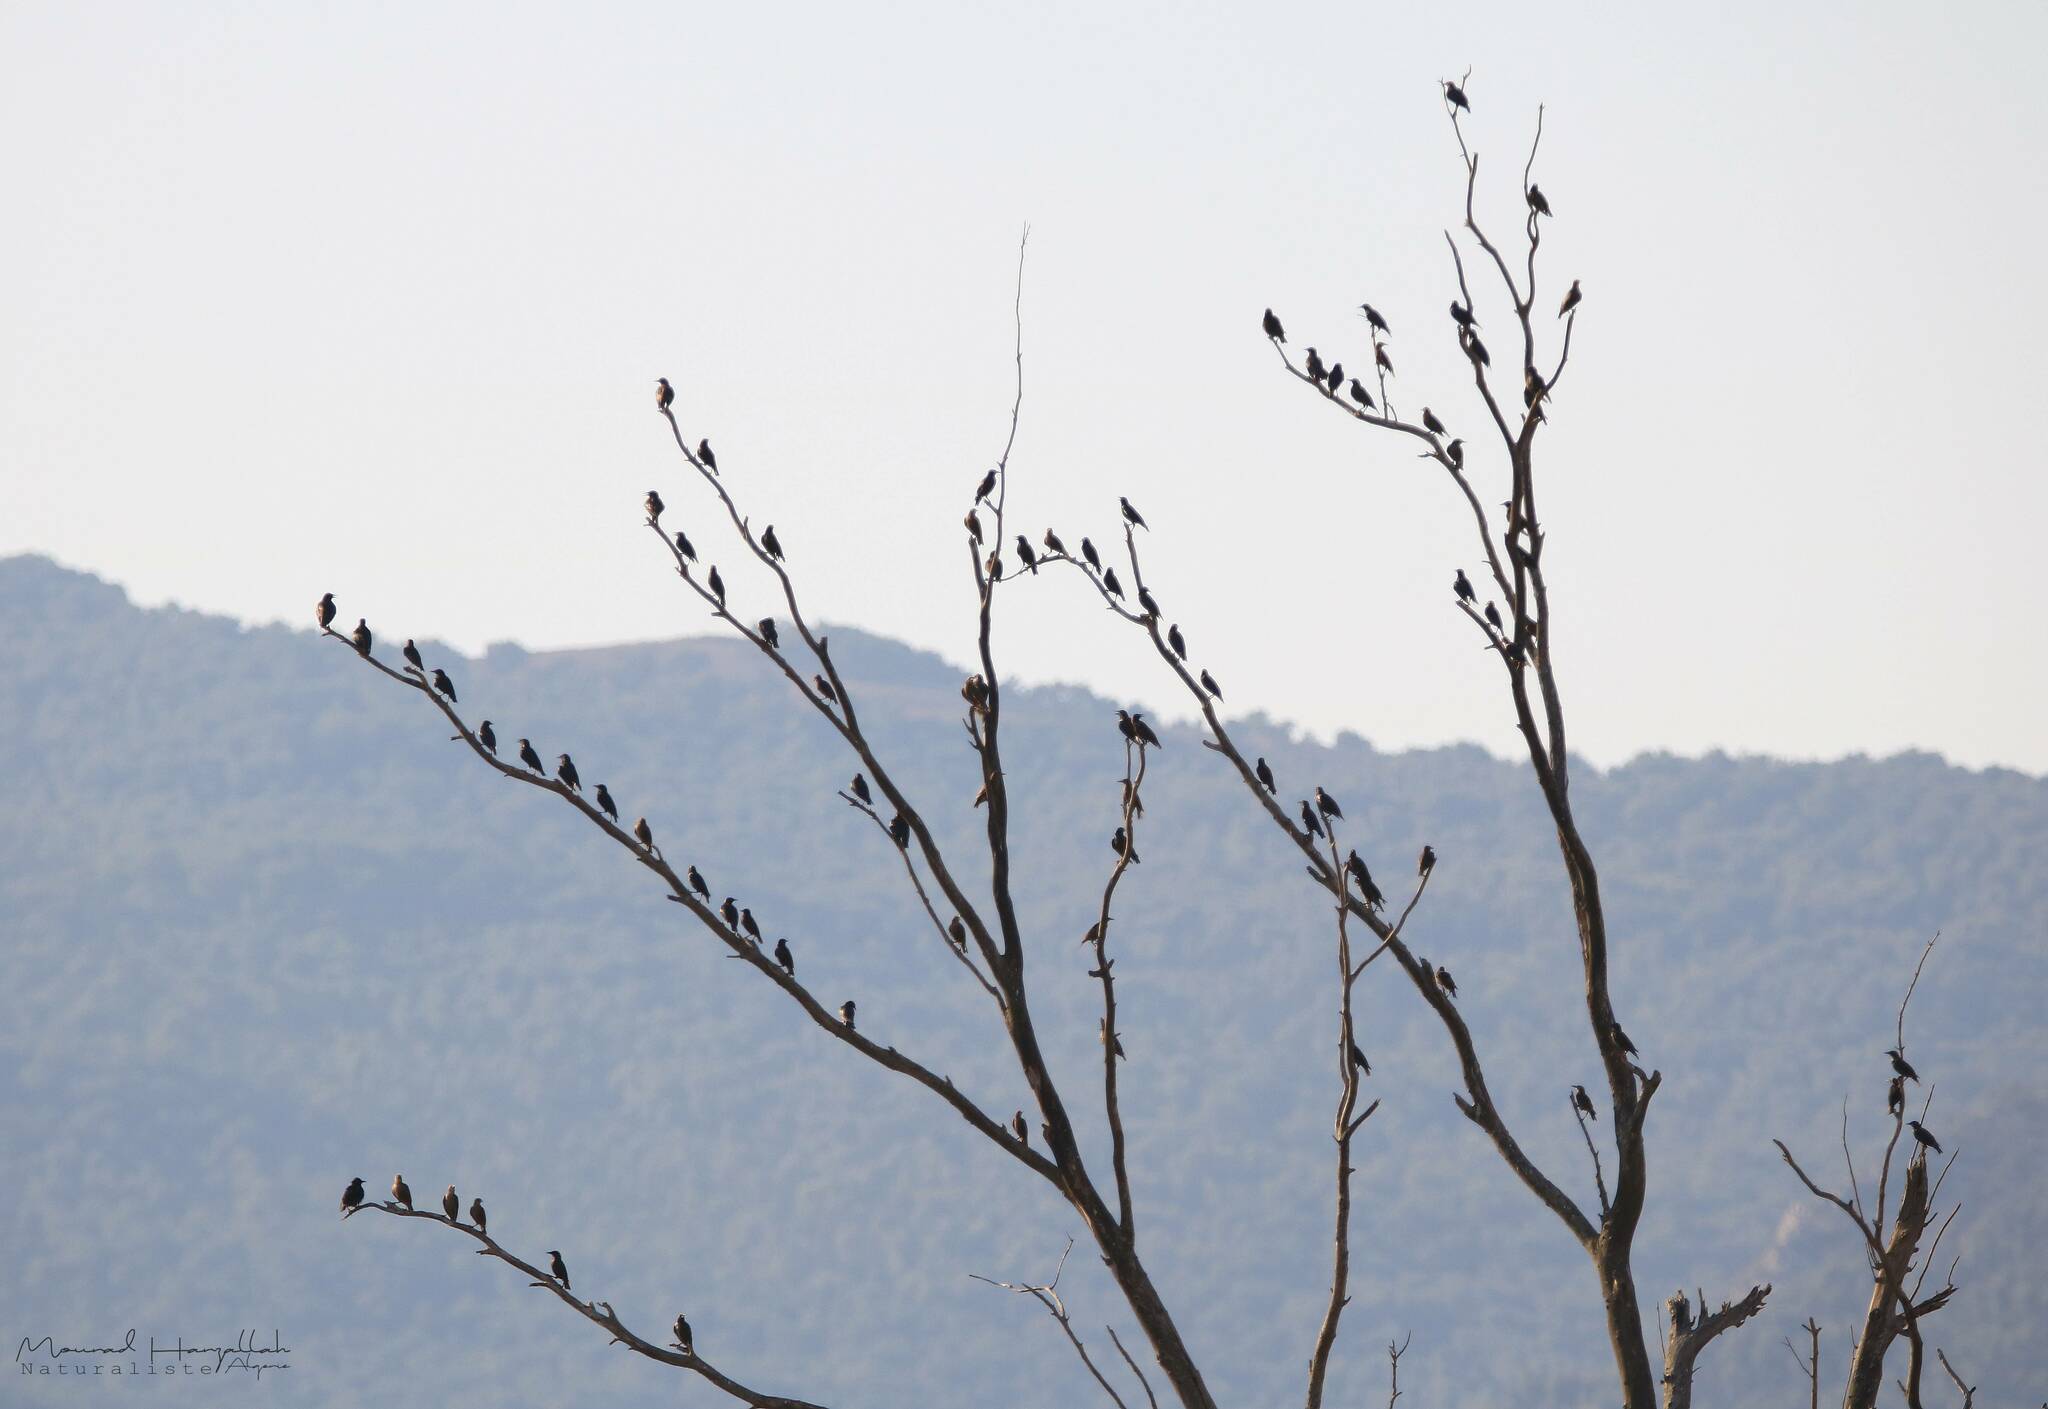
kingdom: Animalia
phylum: Chordata
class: Aves
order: Passeriformes
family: Sturnidae
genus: Sturnus
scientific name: Sturnus unicolor
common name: Spotless starling
